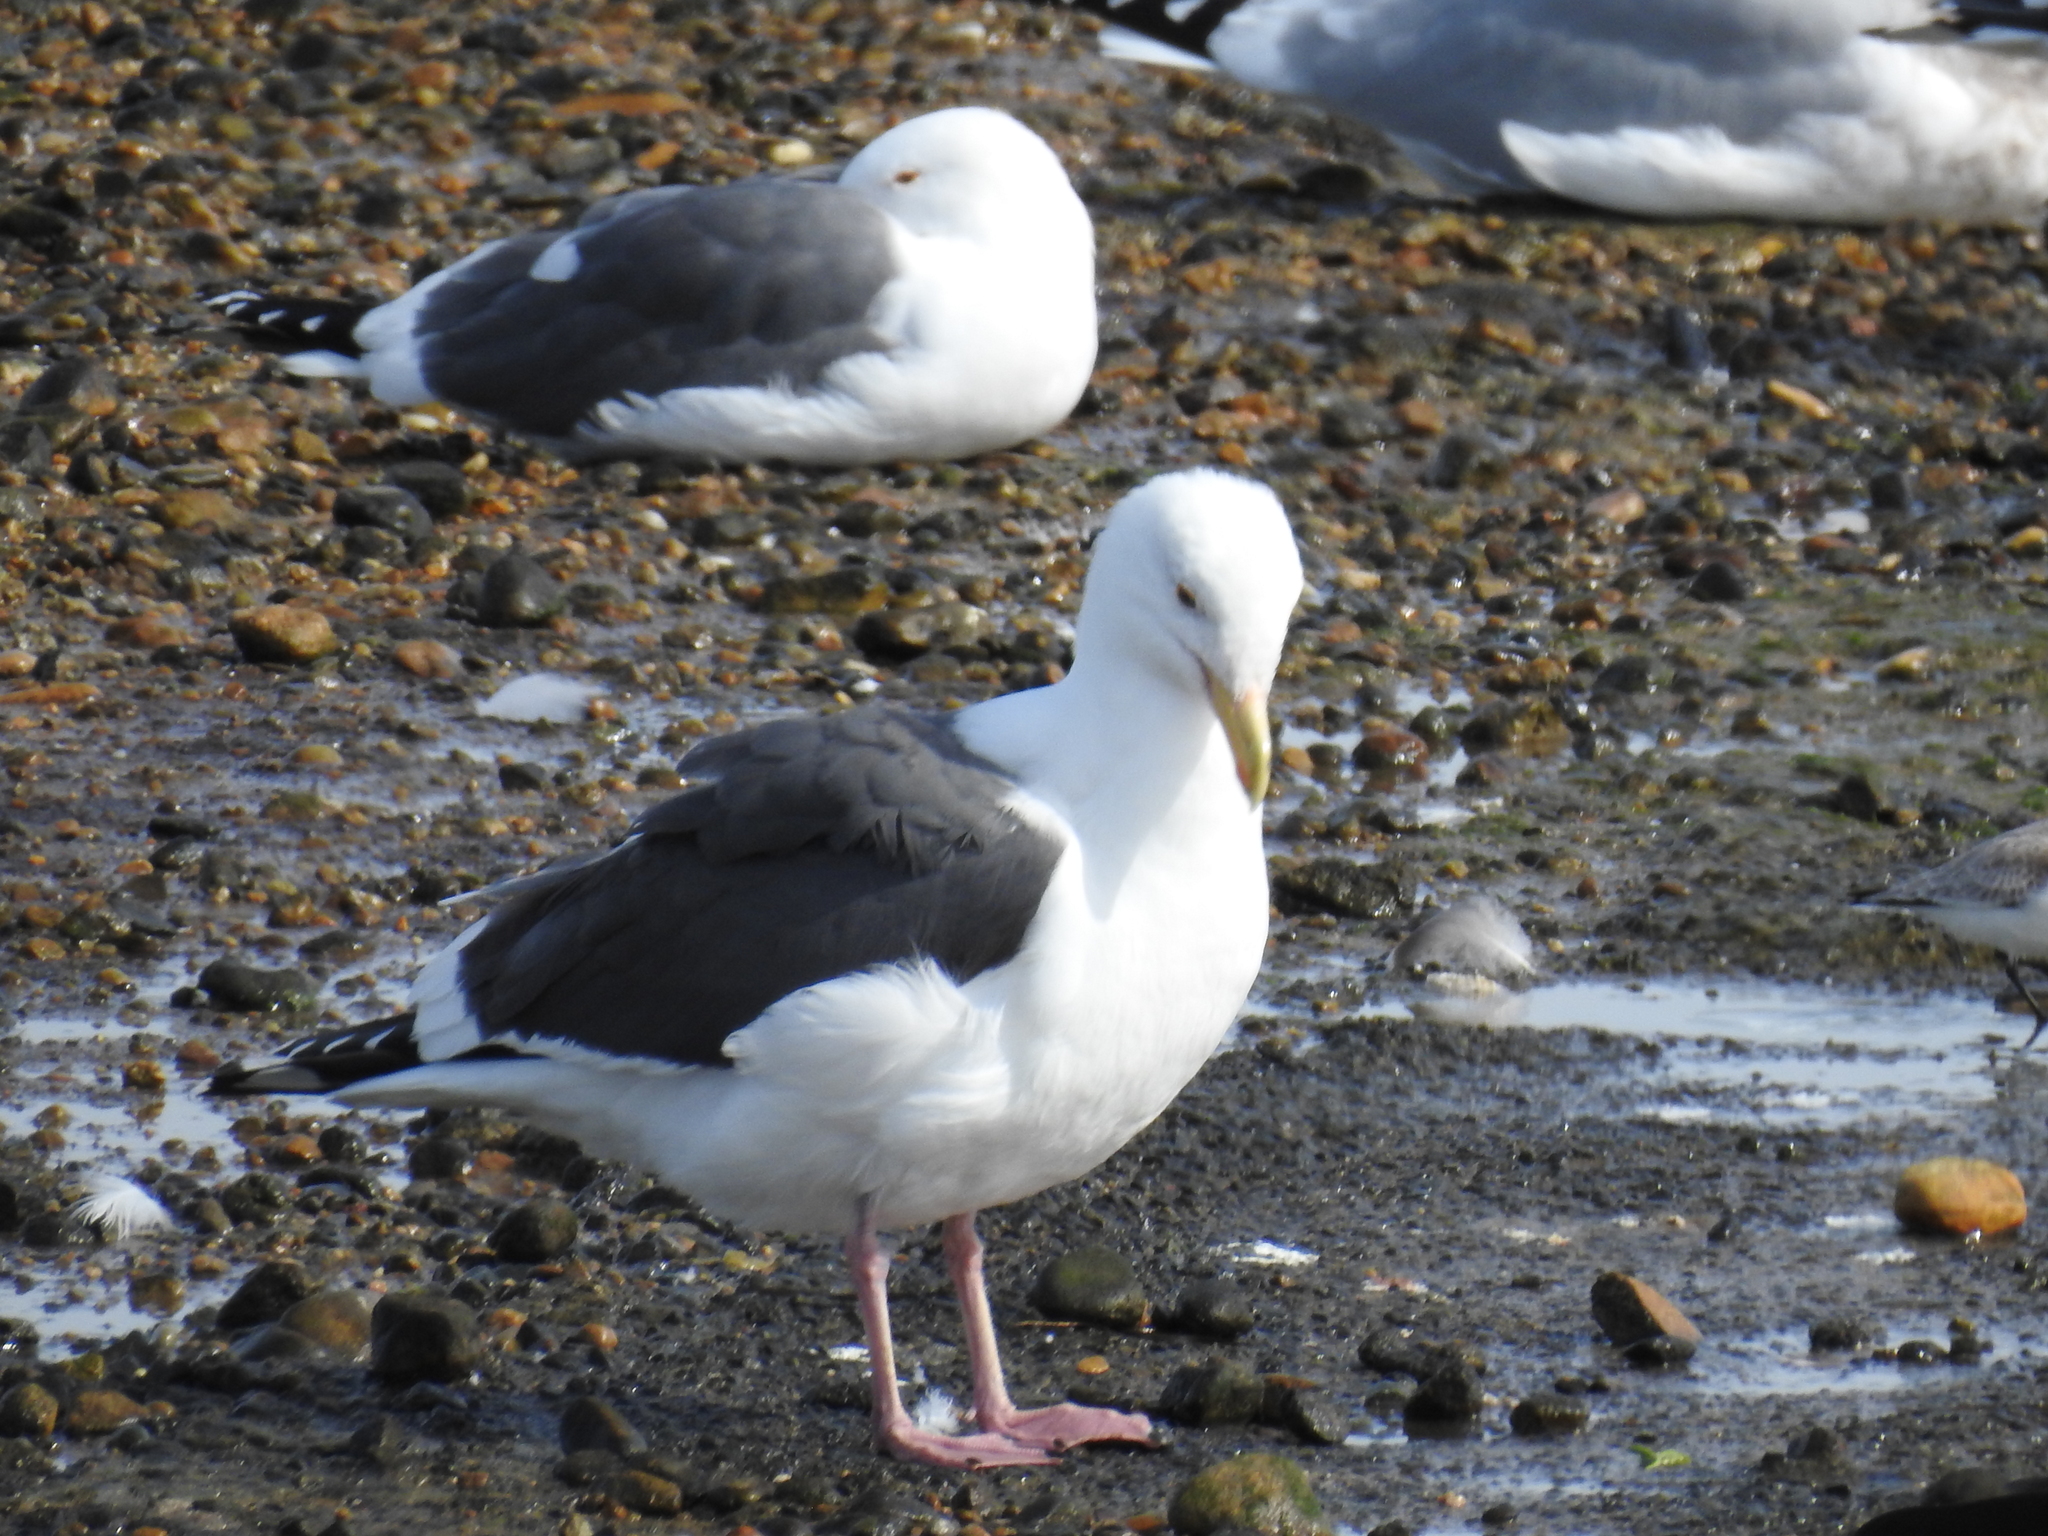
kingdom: Animalia
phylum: Chordata
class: Aves
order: Charadriiformes
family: Laridae
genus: Larus
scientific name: Larus occidentalis
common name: Western gull
